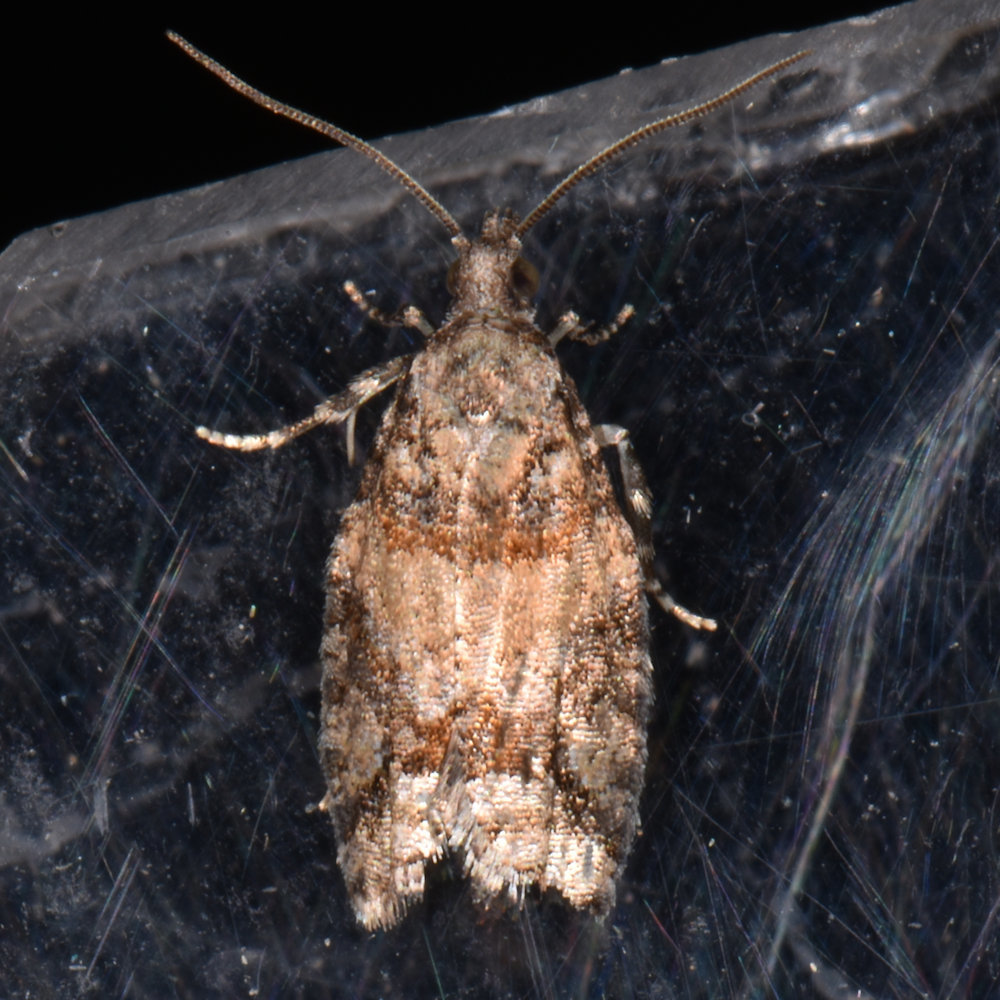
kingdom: Animalia
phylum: Arthropoda
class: Insecta
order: Lepidoptera
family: Tortricidae
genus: Epinotia
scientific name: Epinotia radicana
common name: Red-striped needleworm moth
